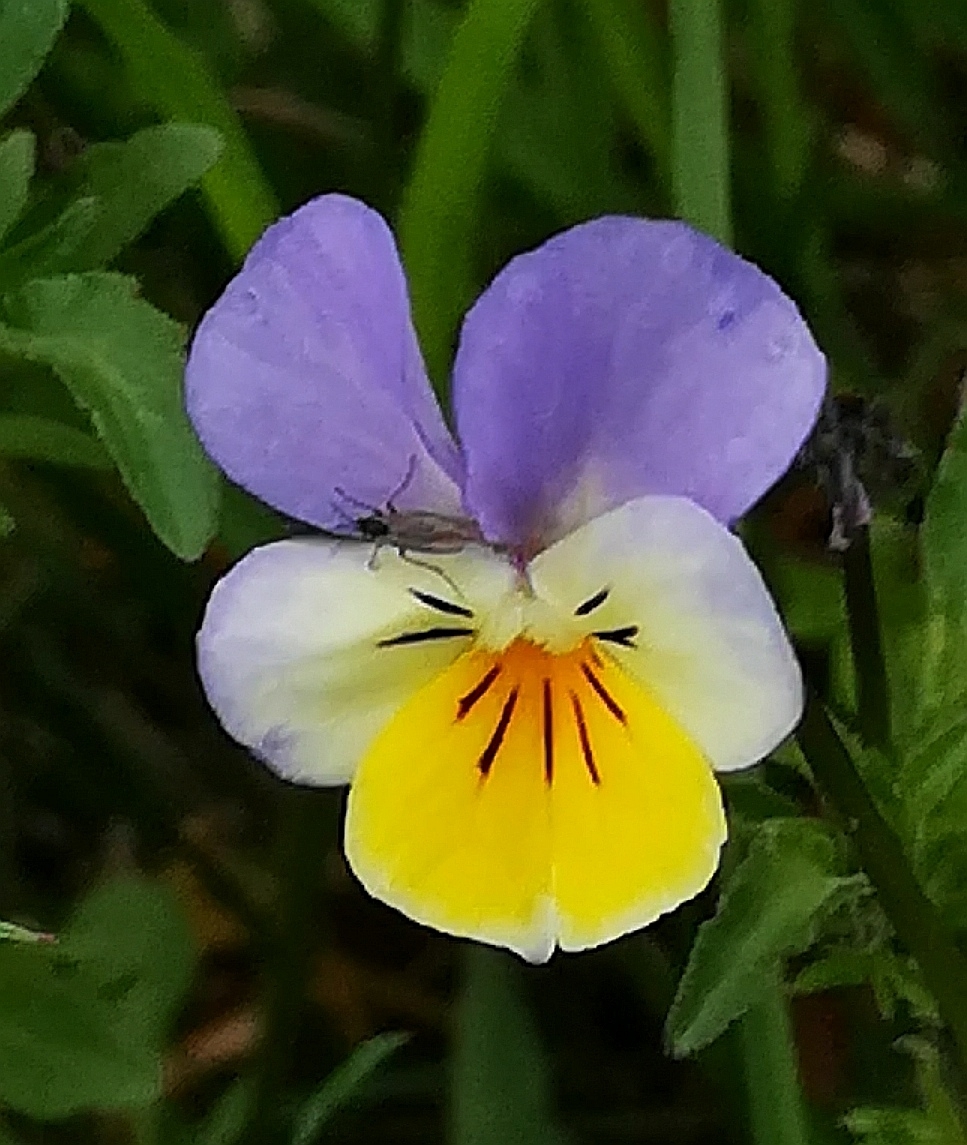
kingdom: Plantae
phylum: Tracheophyta
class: Magnoliopsida
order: Malpighiales
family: Violaceae
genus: Viola
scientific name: Viola tricolor
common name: Pansy
